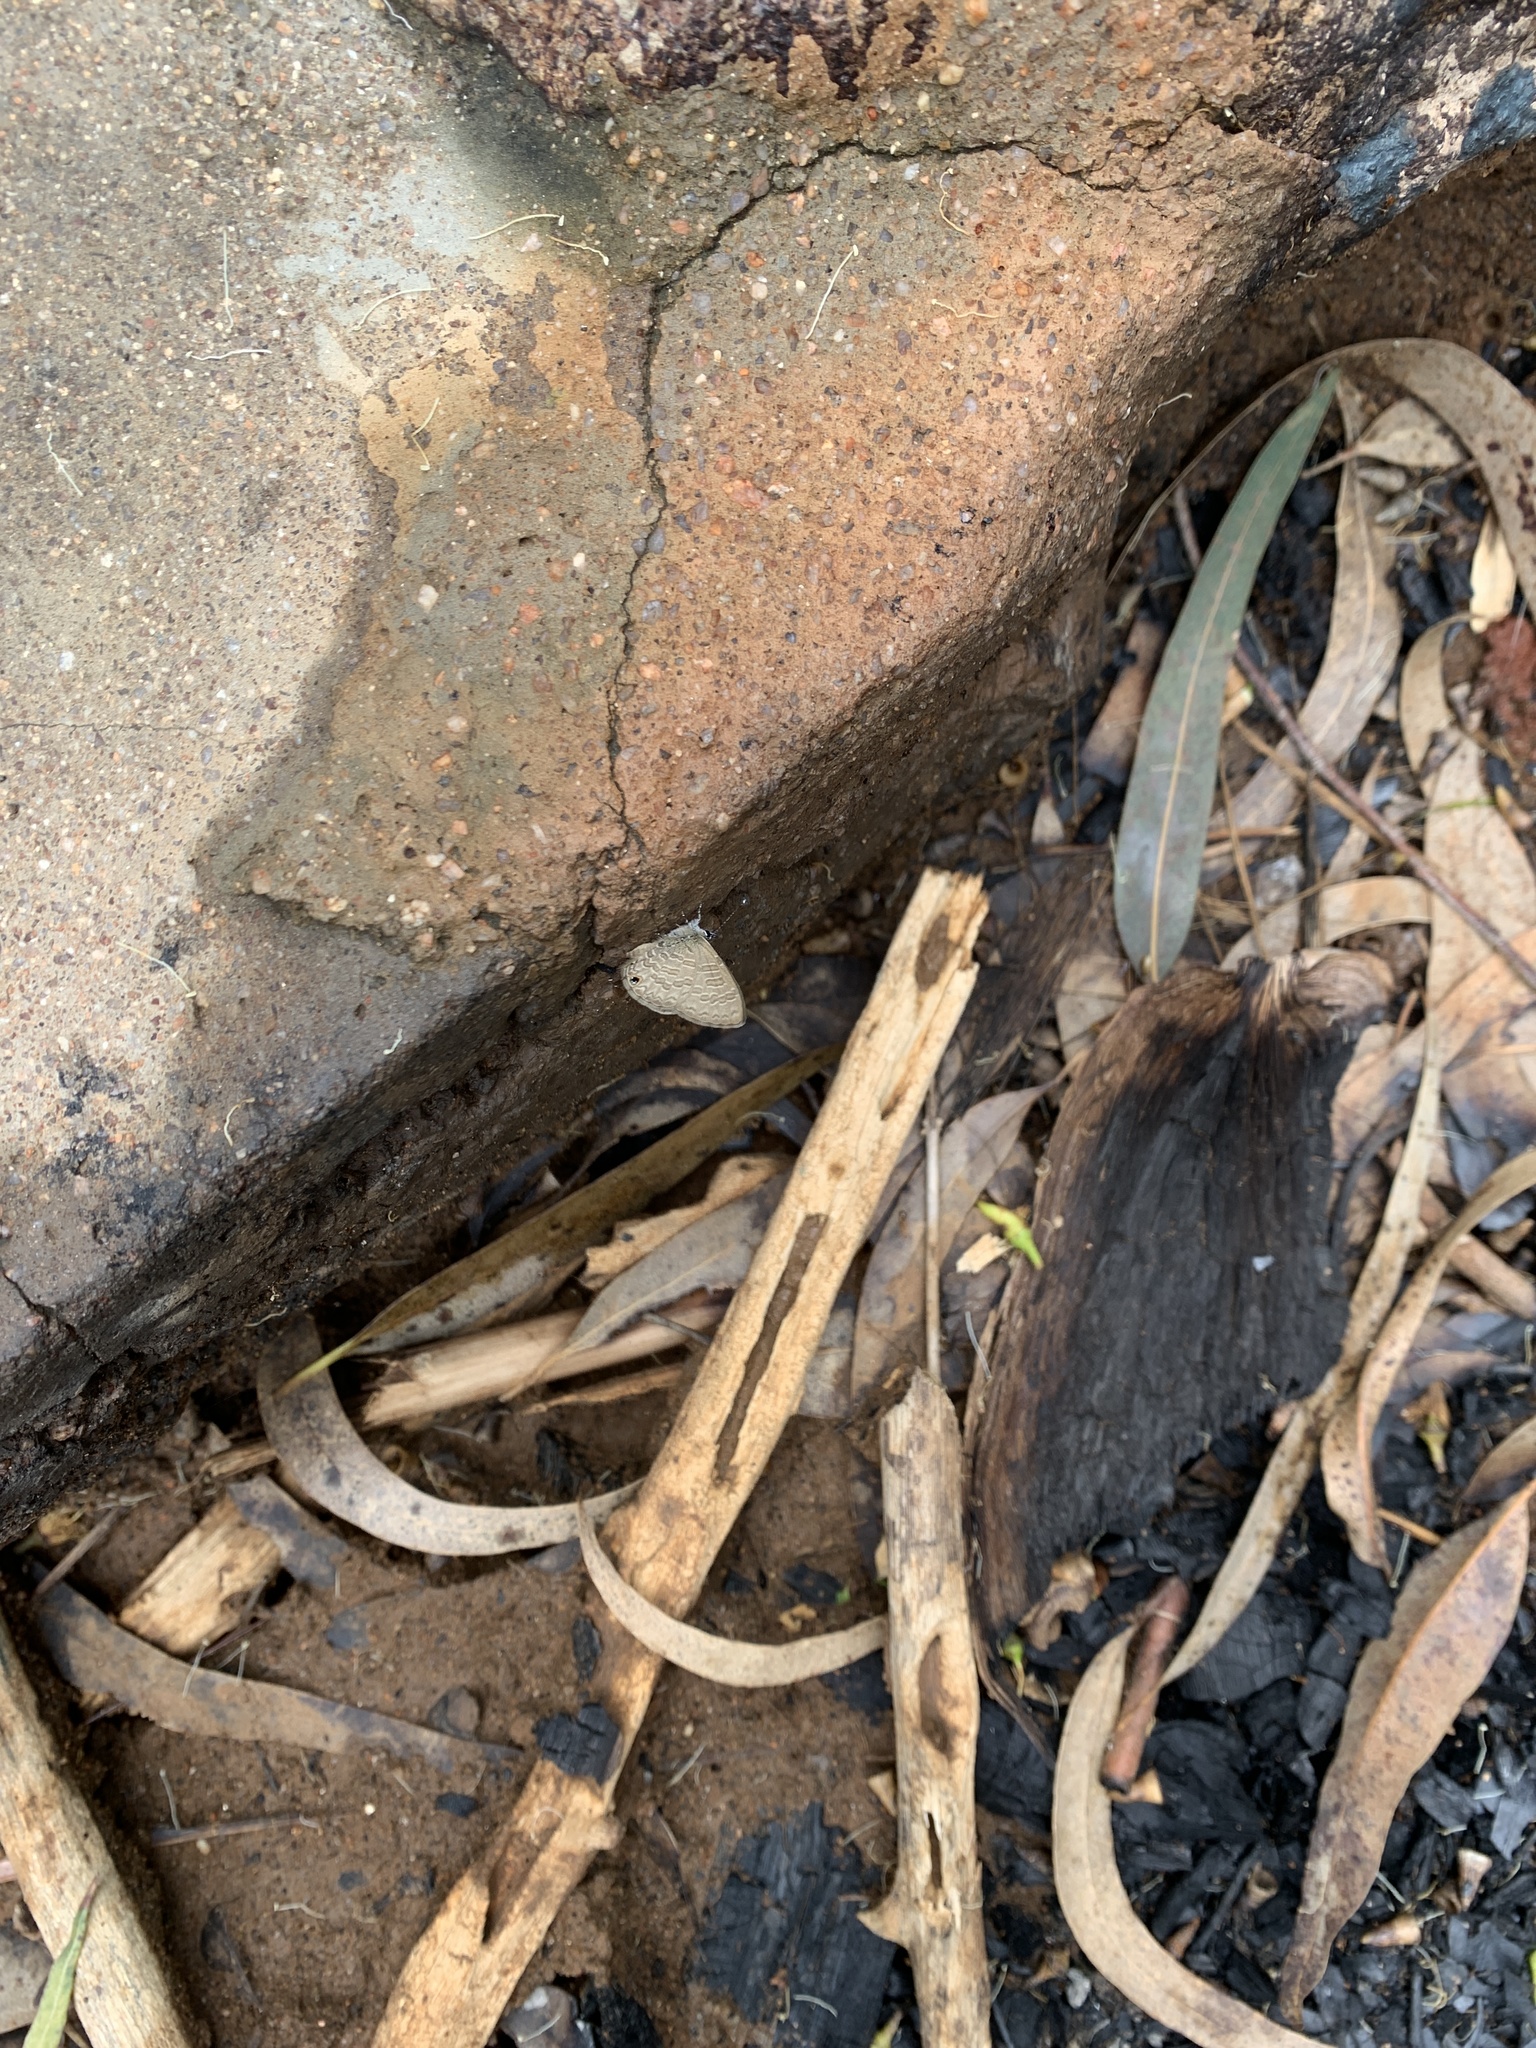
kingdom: Animalia
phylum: Arthropoda
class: Insecta
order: Lepidoptera
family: Lycaenidae
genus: Prosotas
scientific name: Prosotas nora
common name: Common line blue
